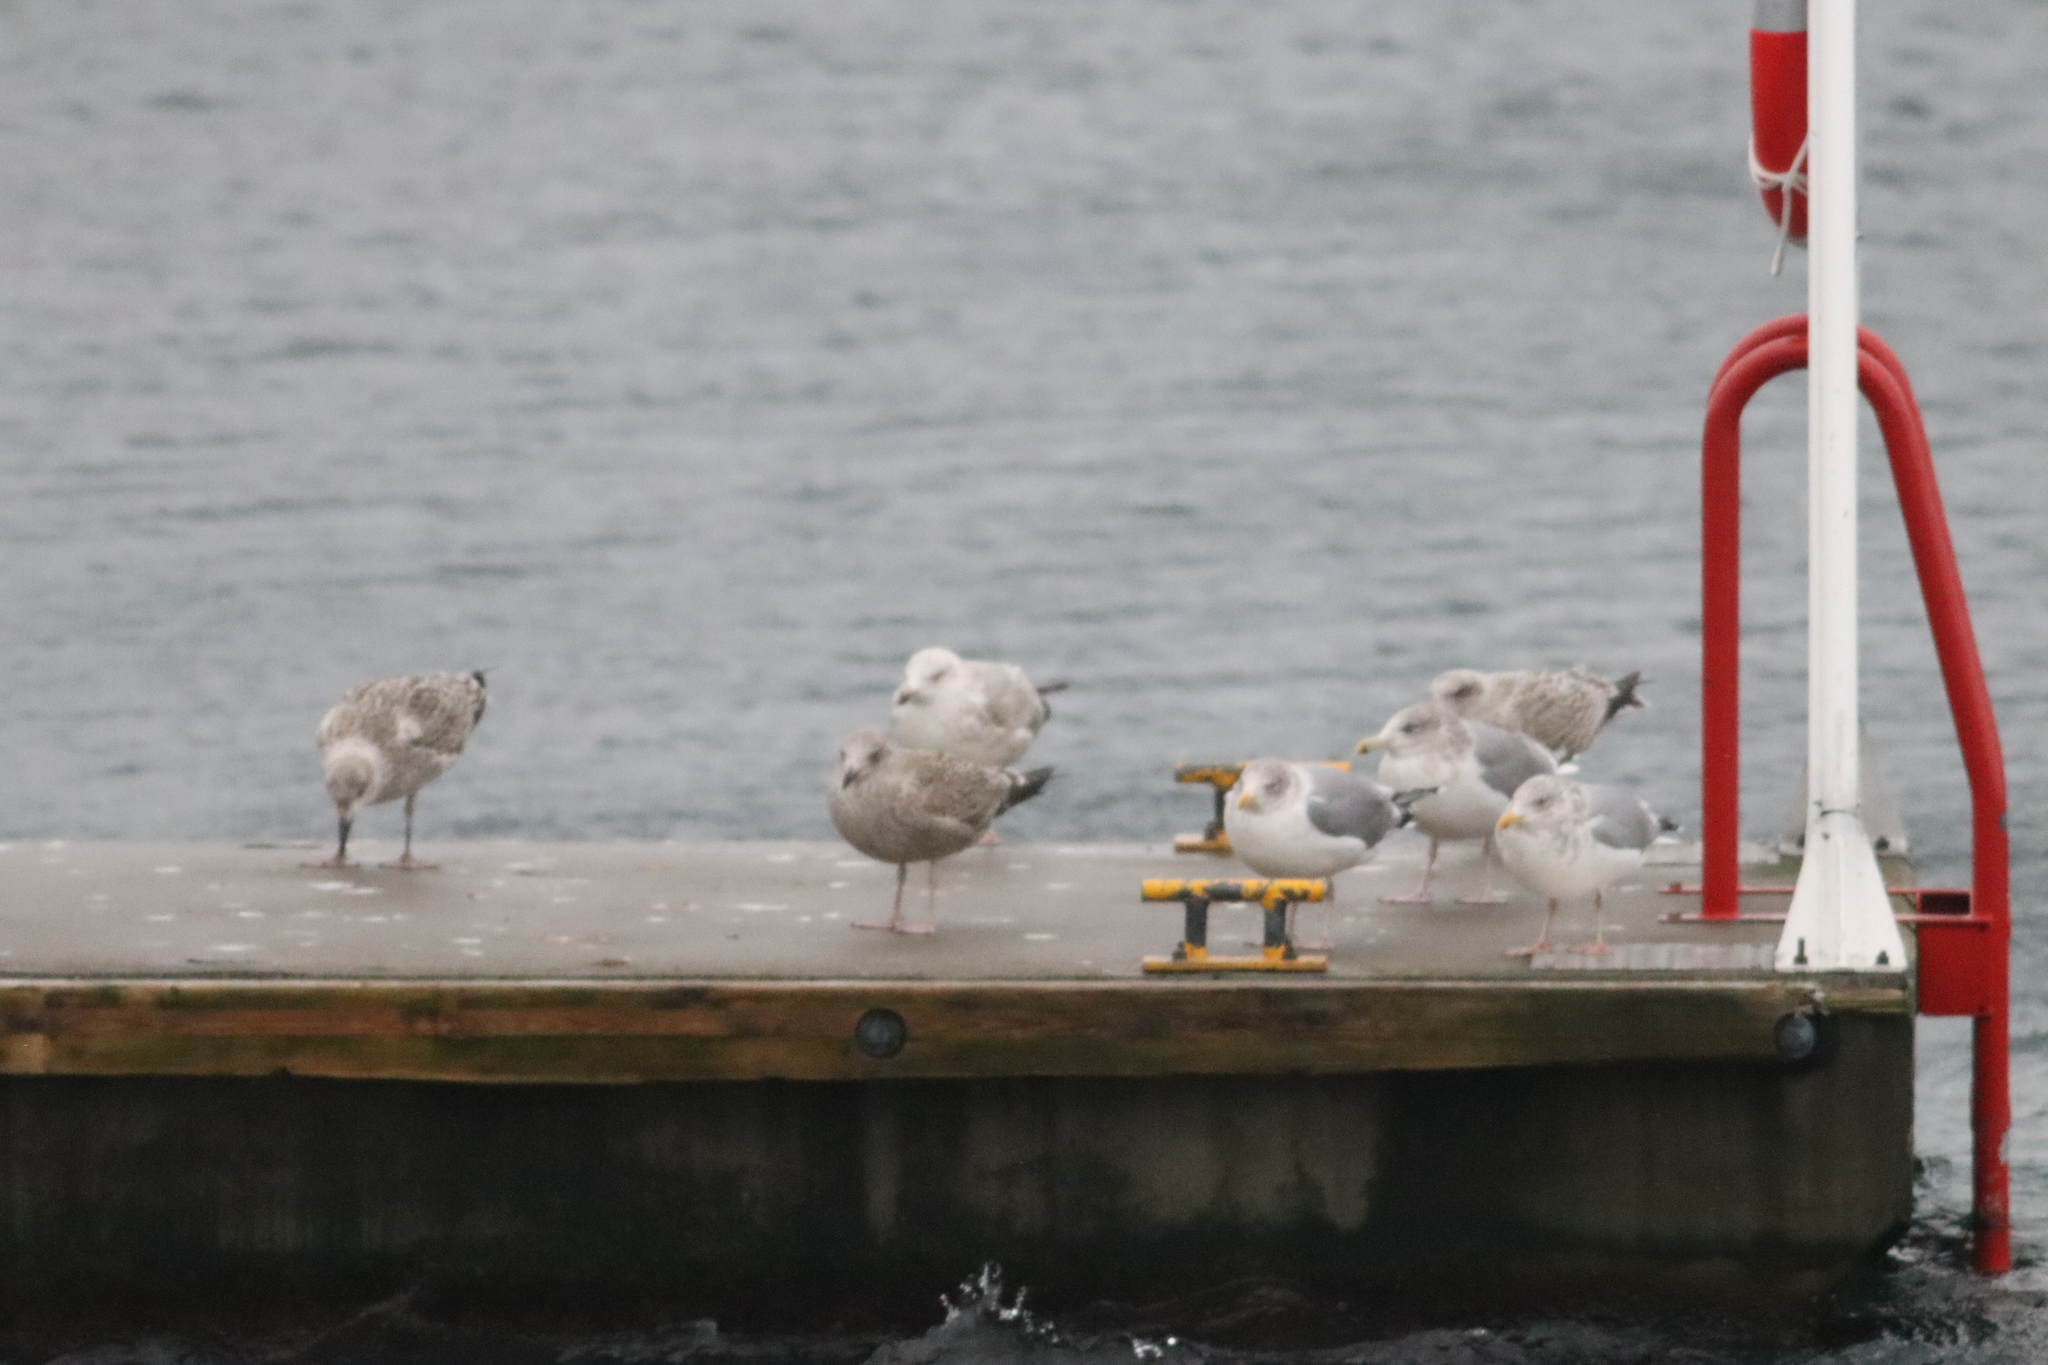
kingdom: Animalia
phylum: Chordata
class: Aves
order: Charadriiformes
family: Laridae
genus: Larus
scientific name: Larus argentatus
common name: Herring gull
